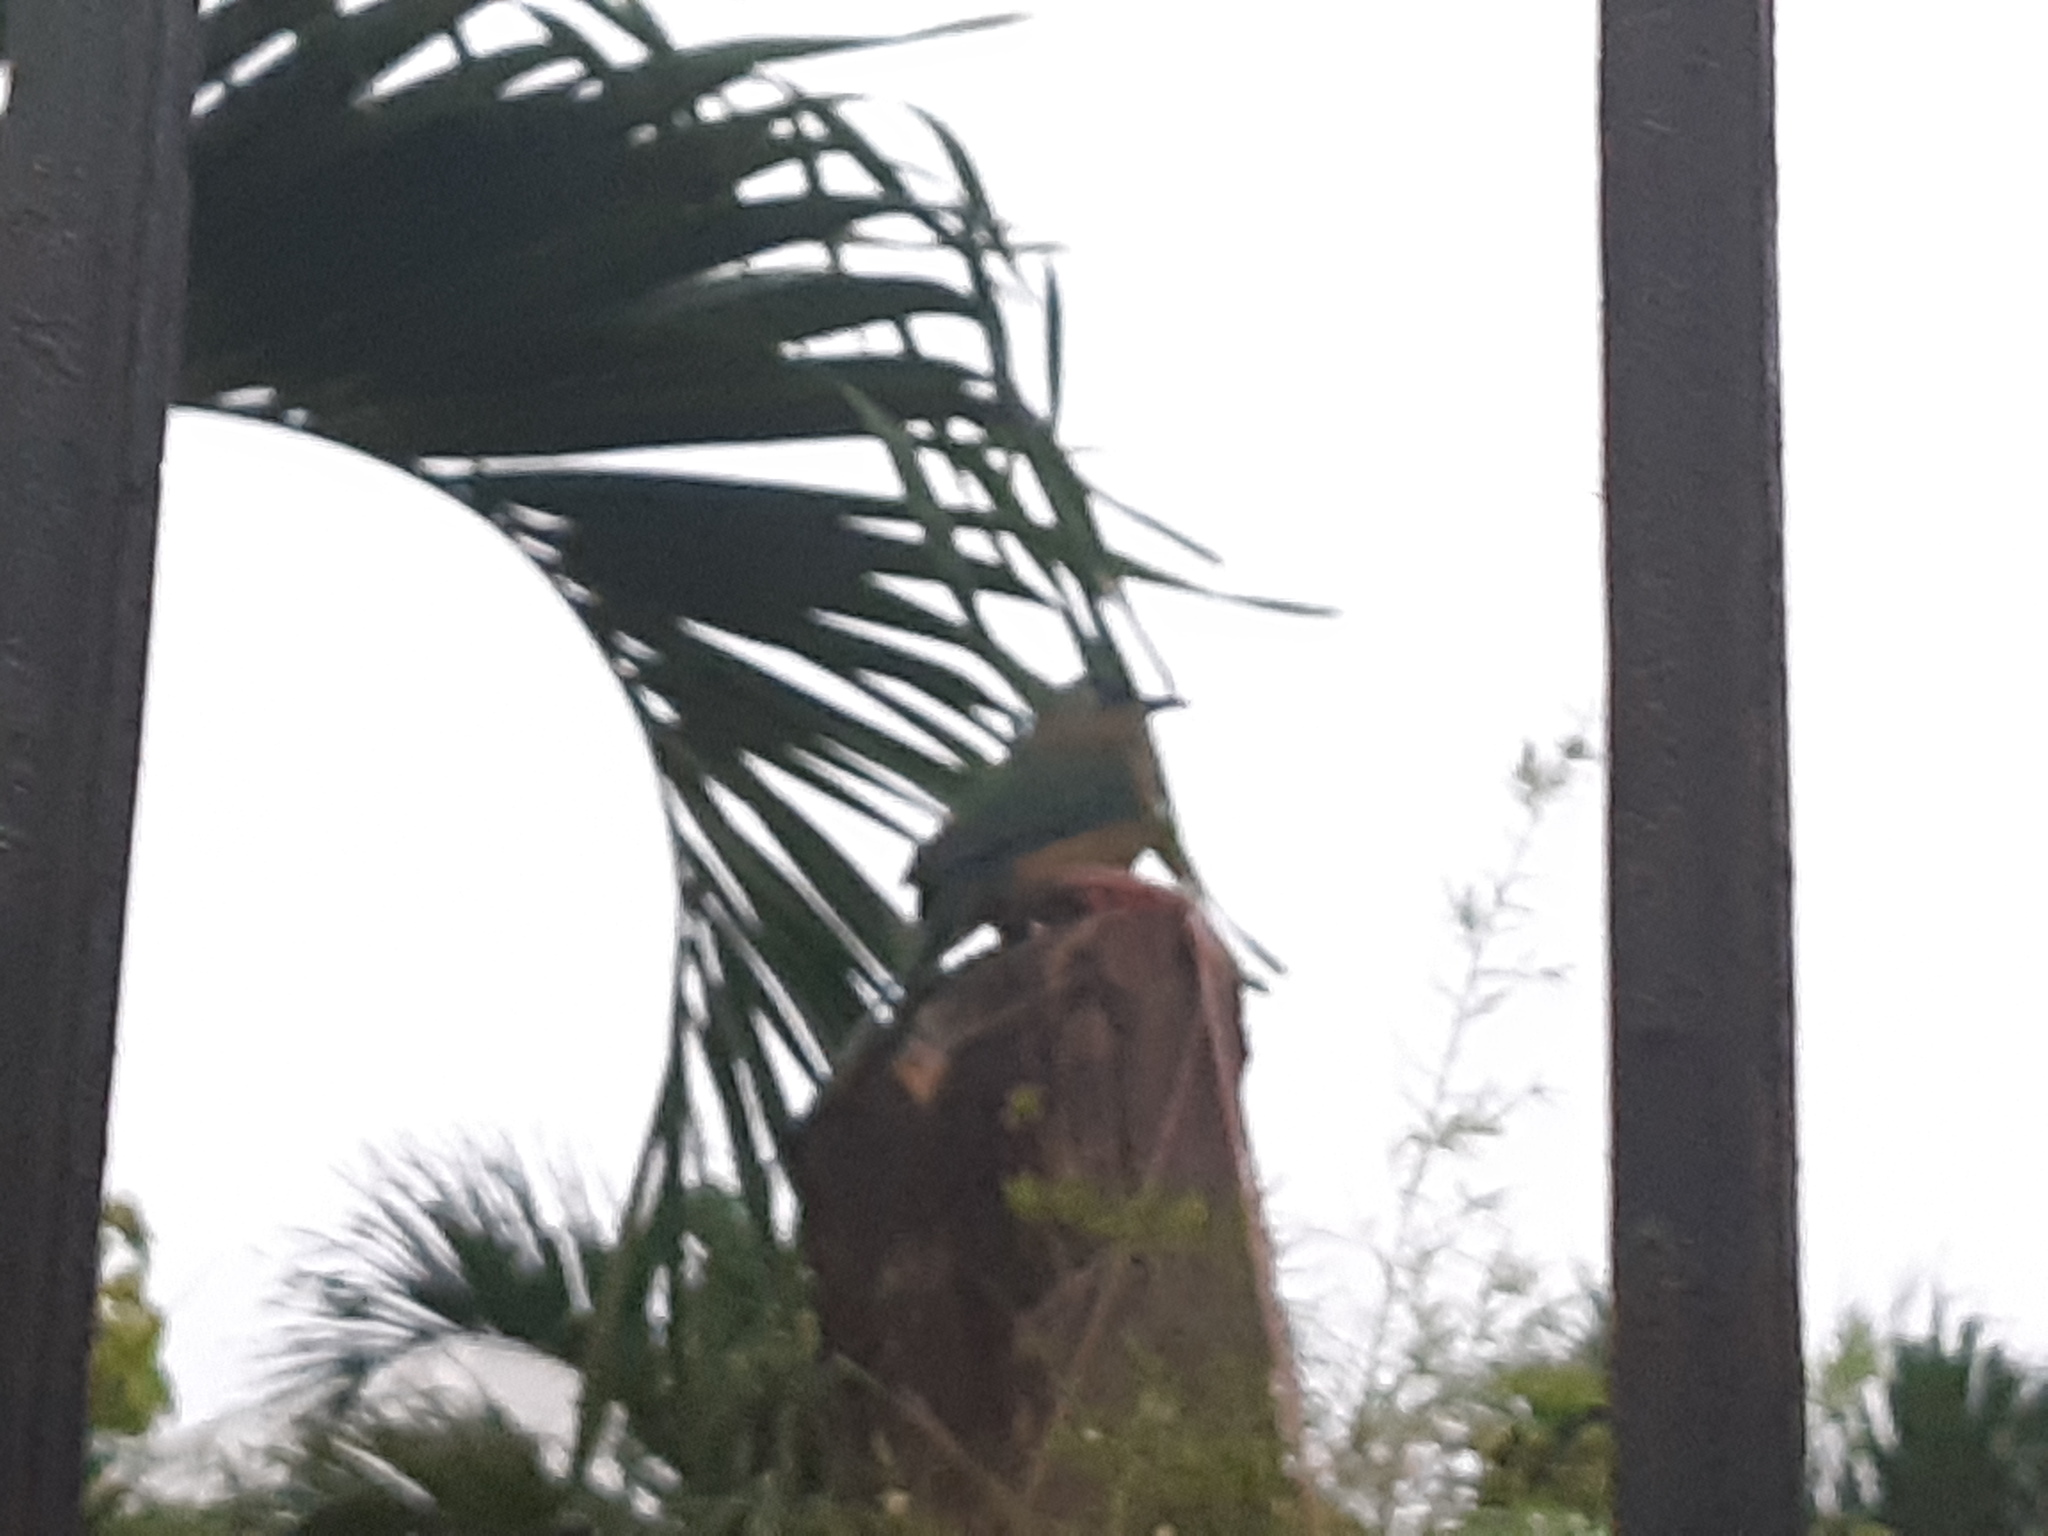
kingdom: Animalia
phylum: Chordata
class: Aves
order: Coraciiformes
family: Momotidae
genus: Momotus
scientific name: Momotus subrufescens
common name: Whooping motmot
